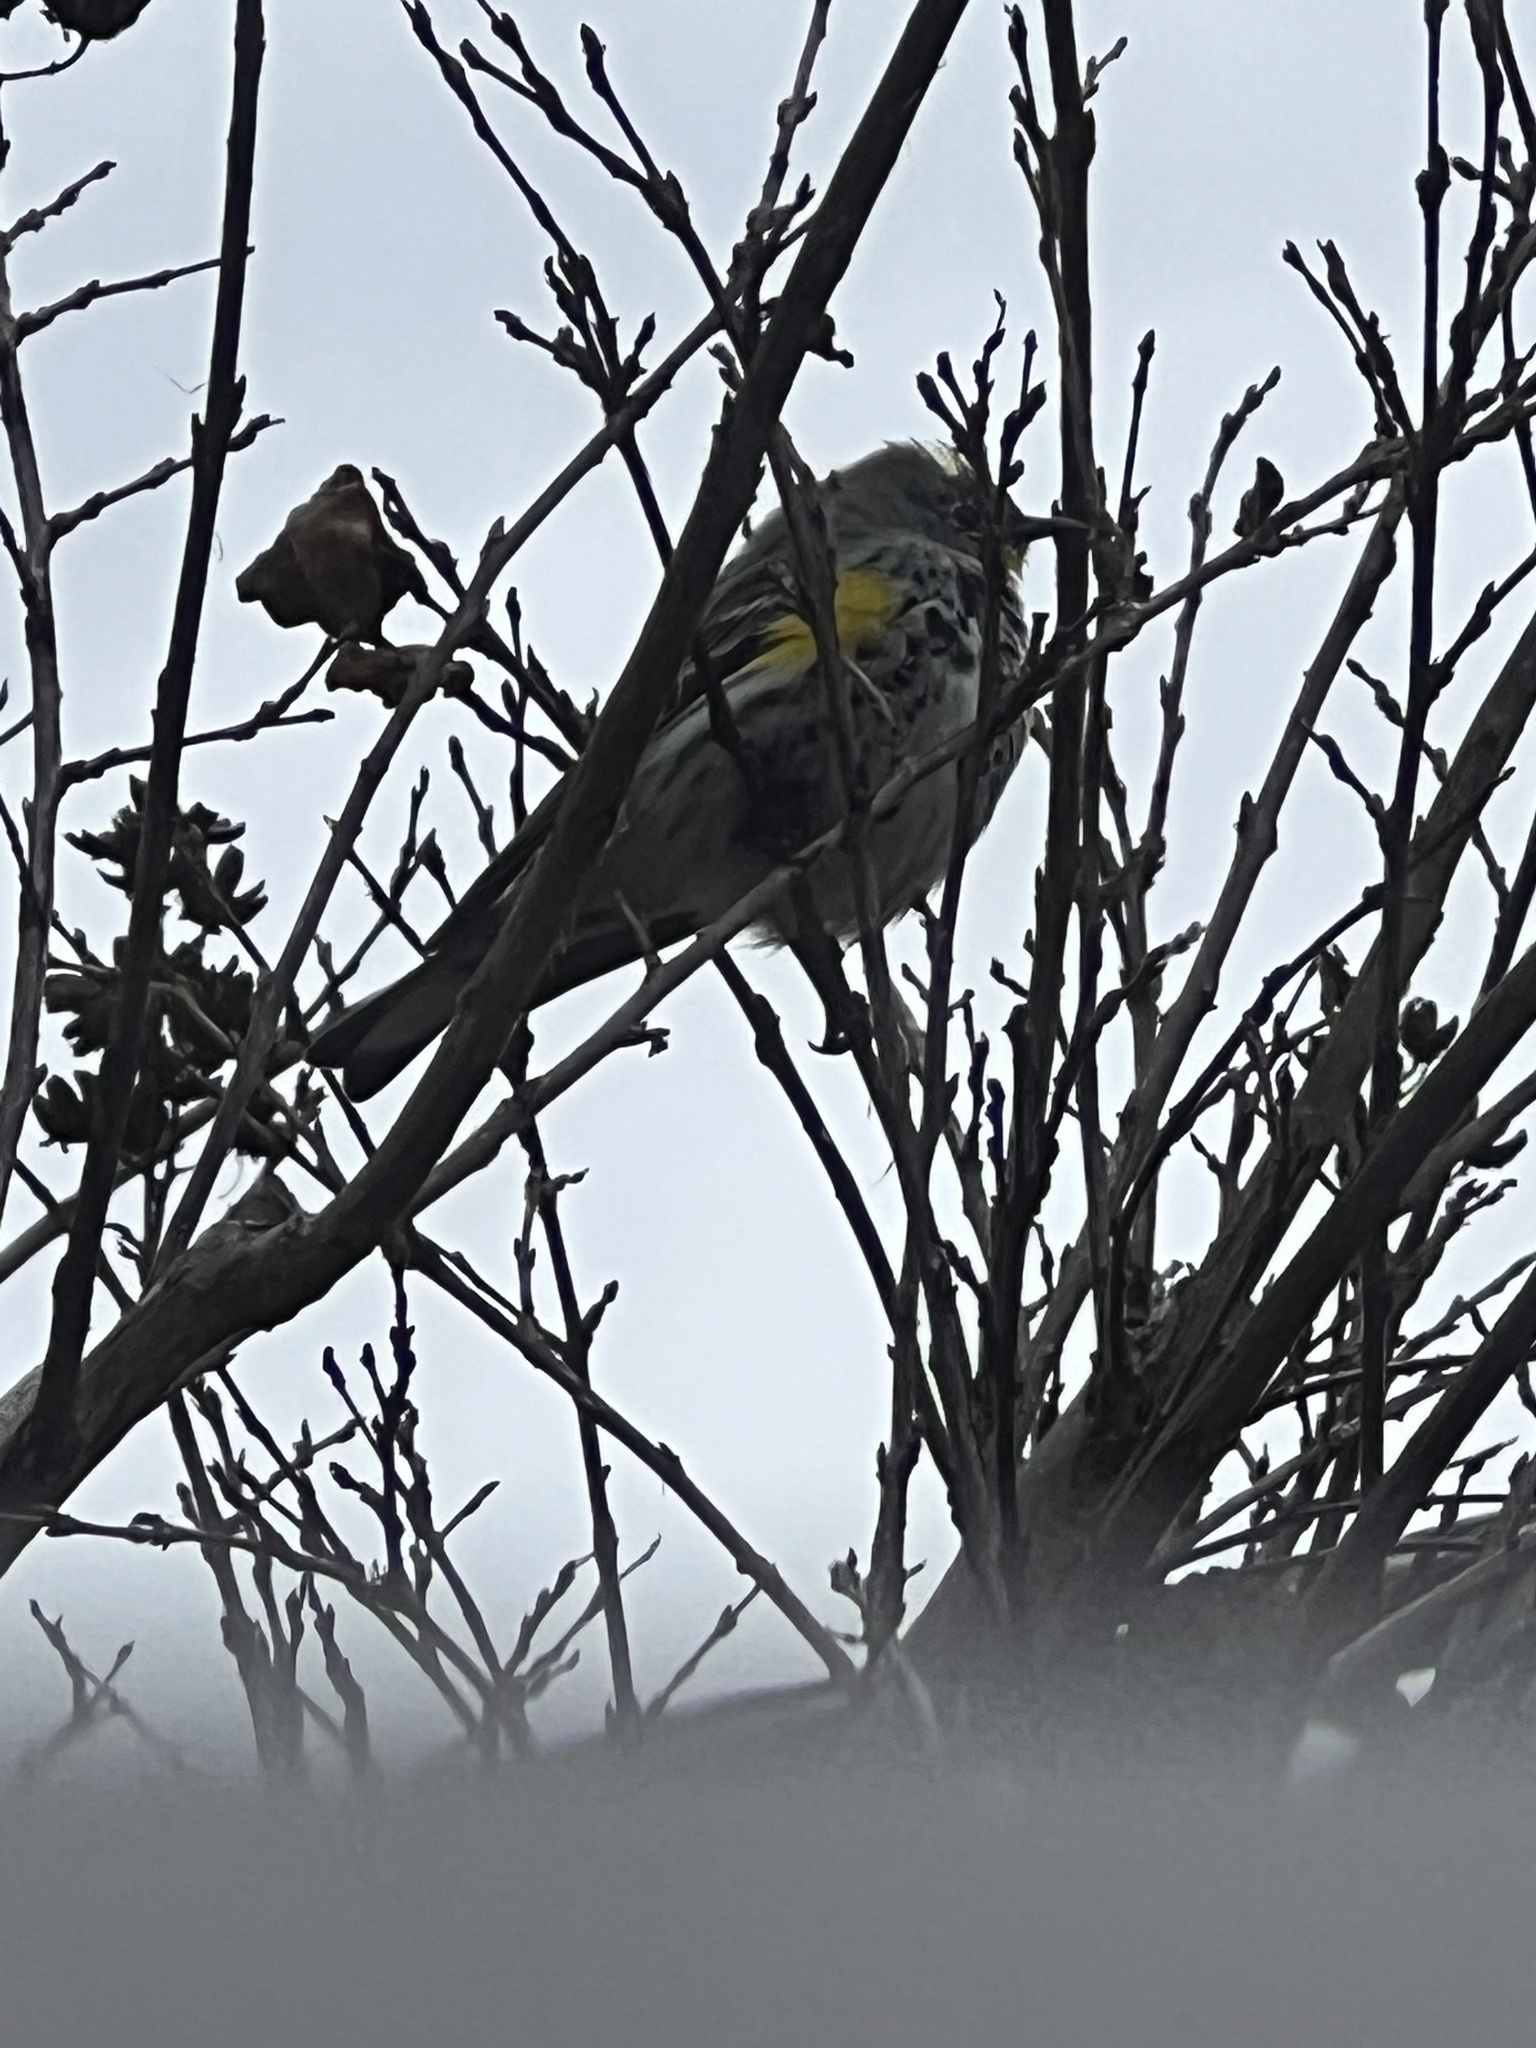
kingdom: Animalia
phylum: Chordata
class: Aves
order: Passeriformes
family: Parulidae
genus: Setophaga
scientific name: Setophaga coronata
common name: Myrtle warbler
